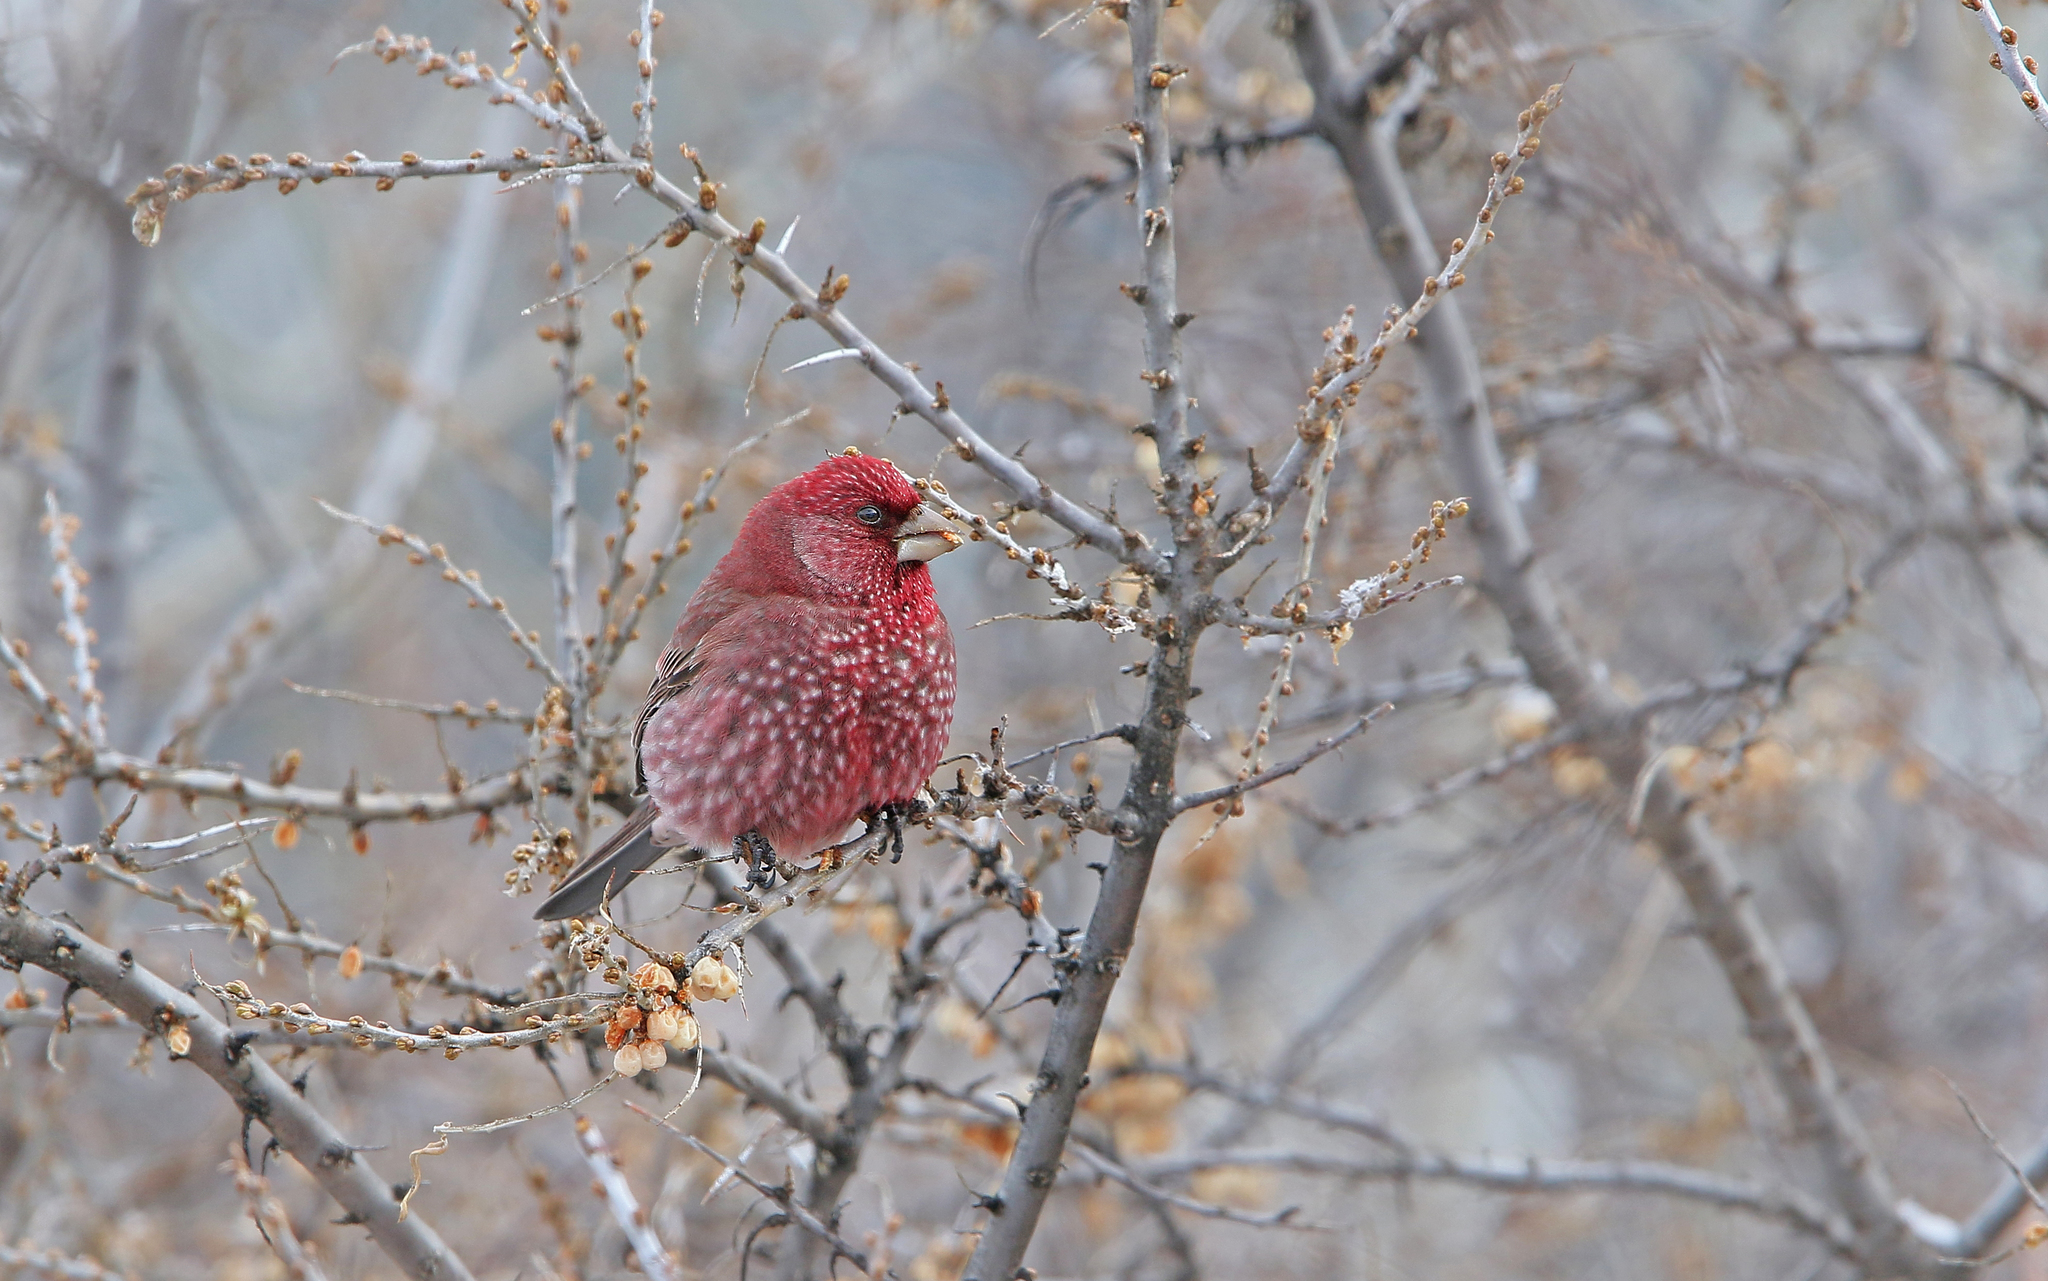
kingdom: Animalia
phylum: Chordata
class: Aves
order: Passeriformes
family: Fringillidae
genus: Carpodacus
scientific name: Carpodacus rubicilla
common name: Great rosefinch
